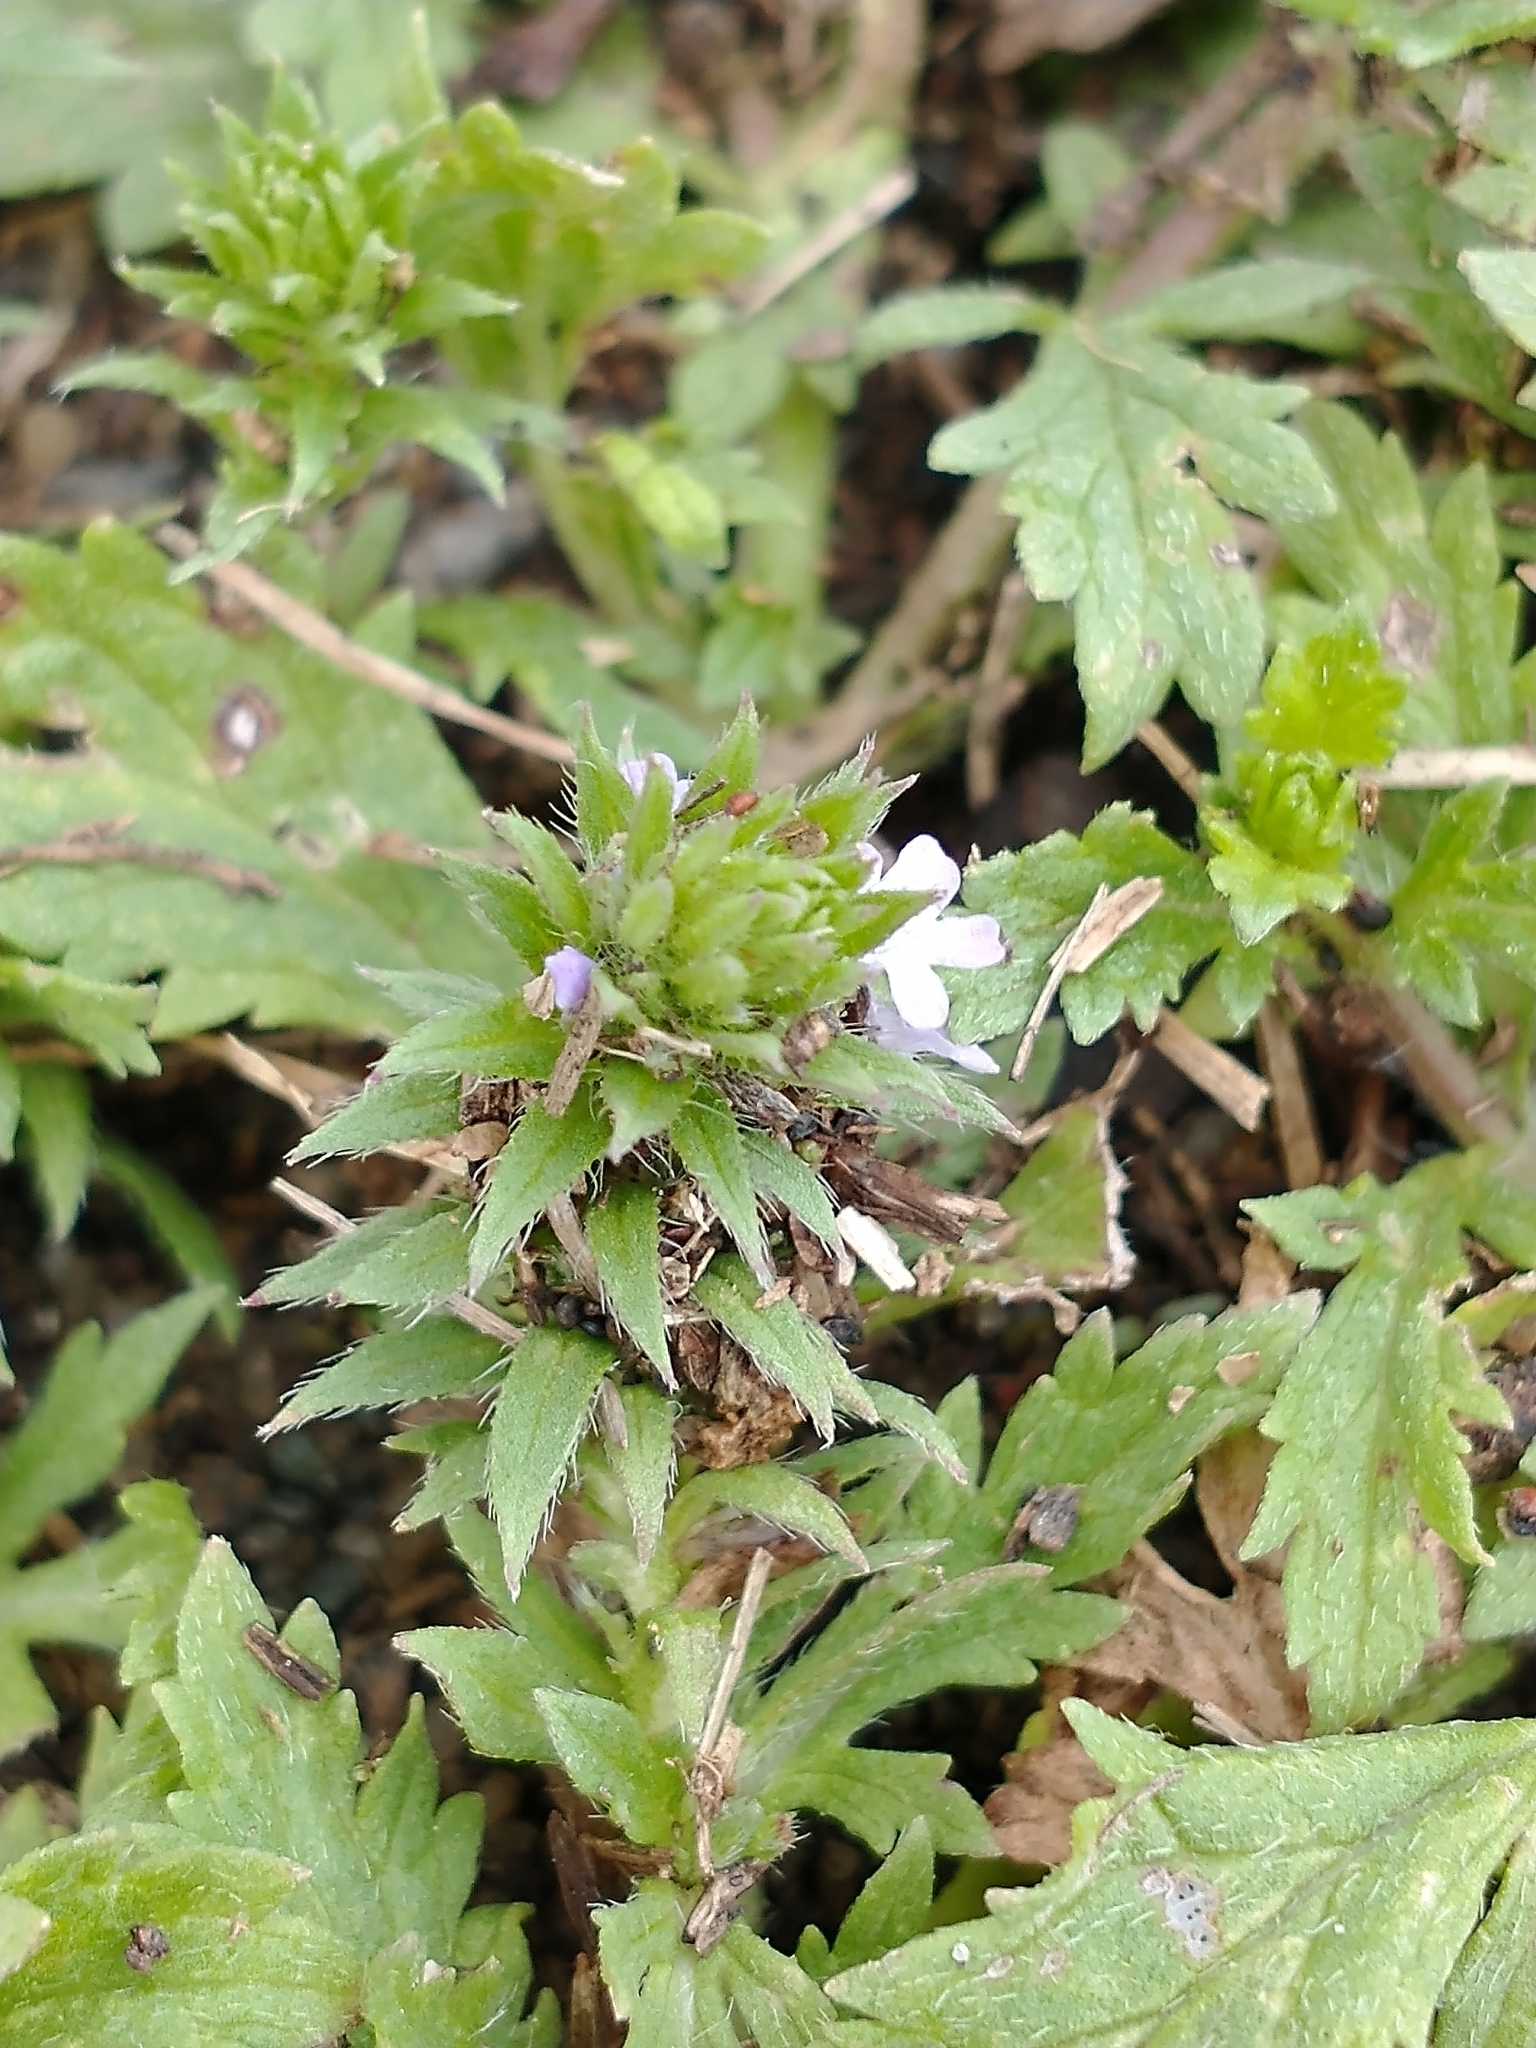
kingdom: Plantae
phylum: Tracheophyta
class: Magnoliopsida
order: Lamiales
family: Verbenaceae
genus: Verbena
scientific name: Verbena bracteata
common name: Bracted vervain
